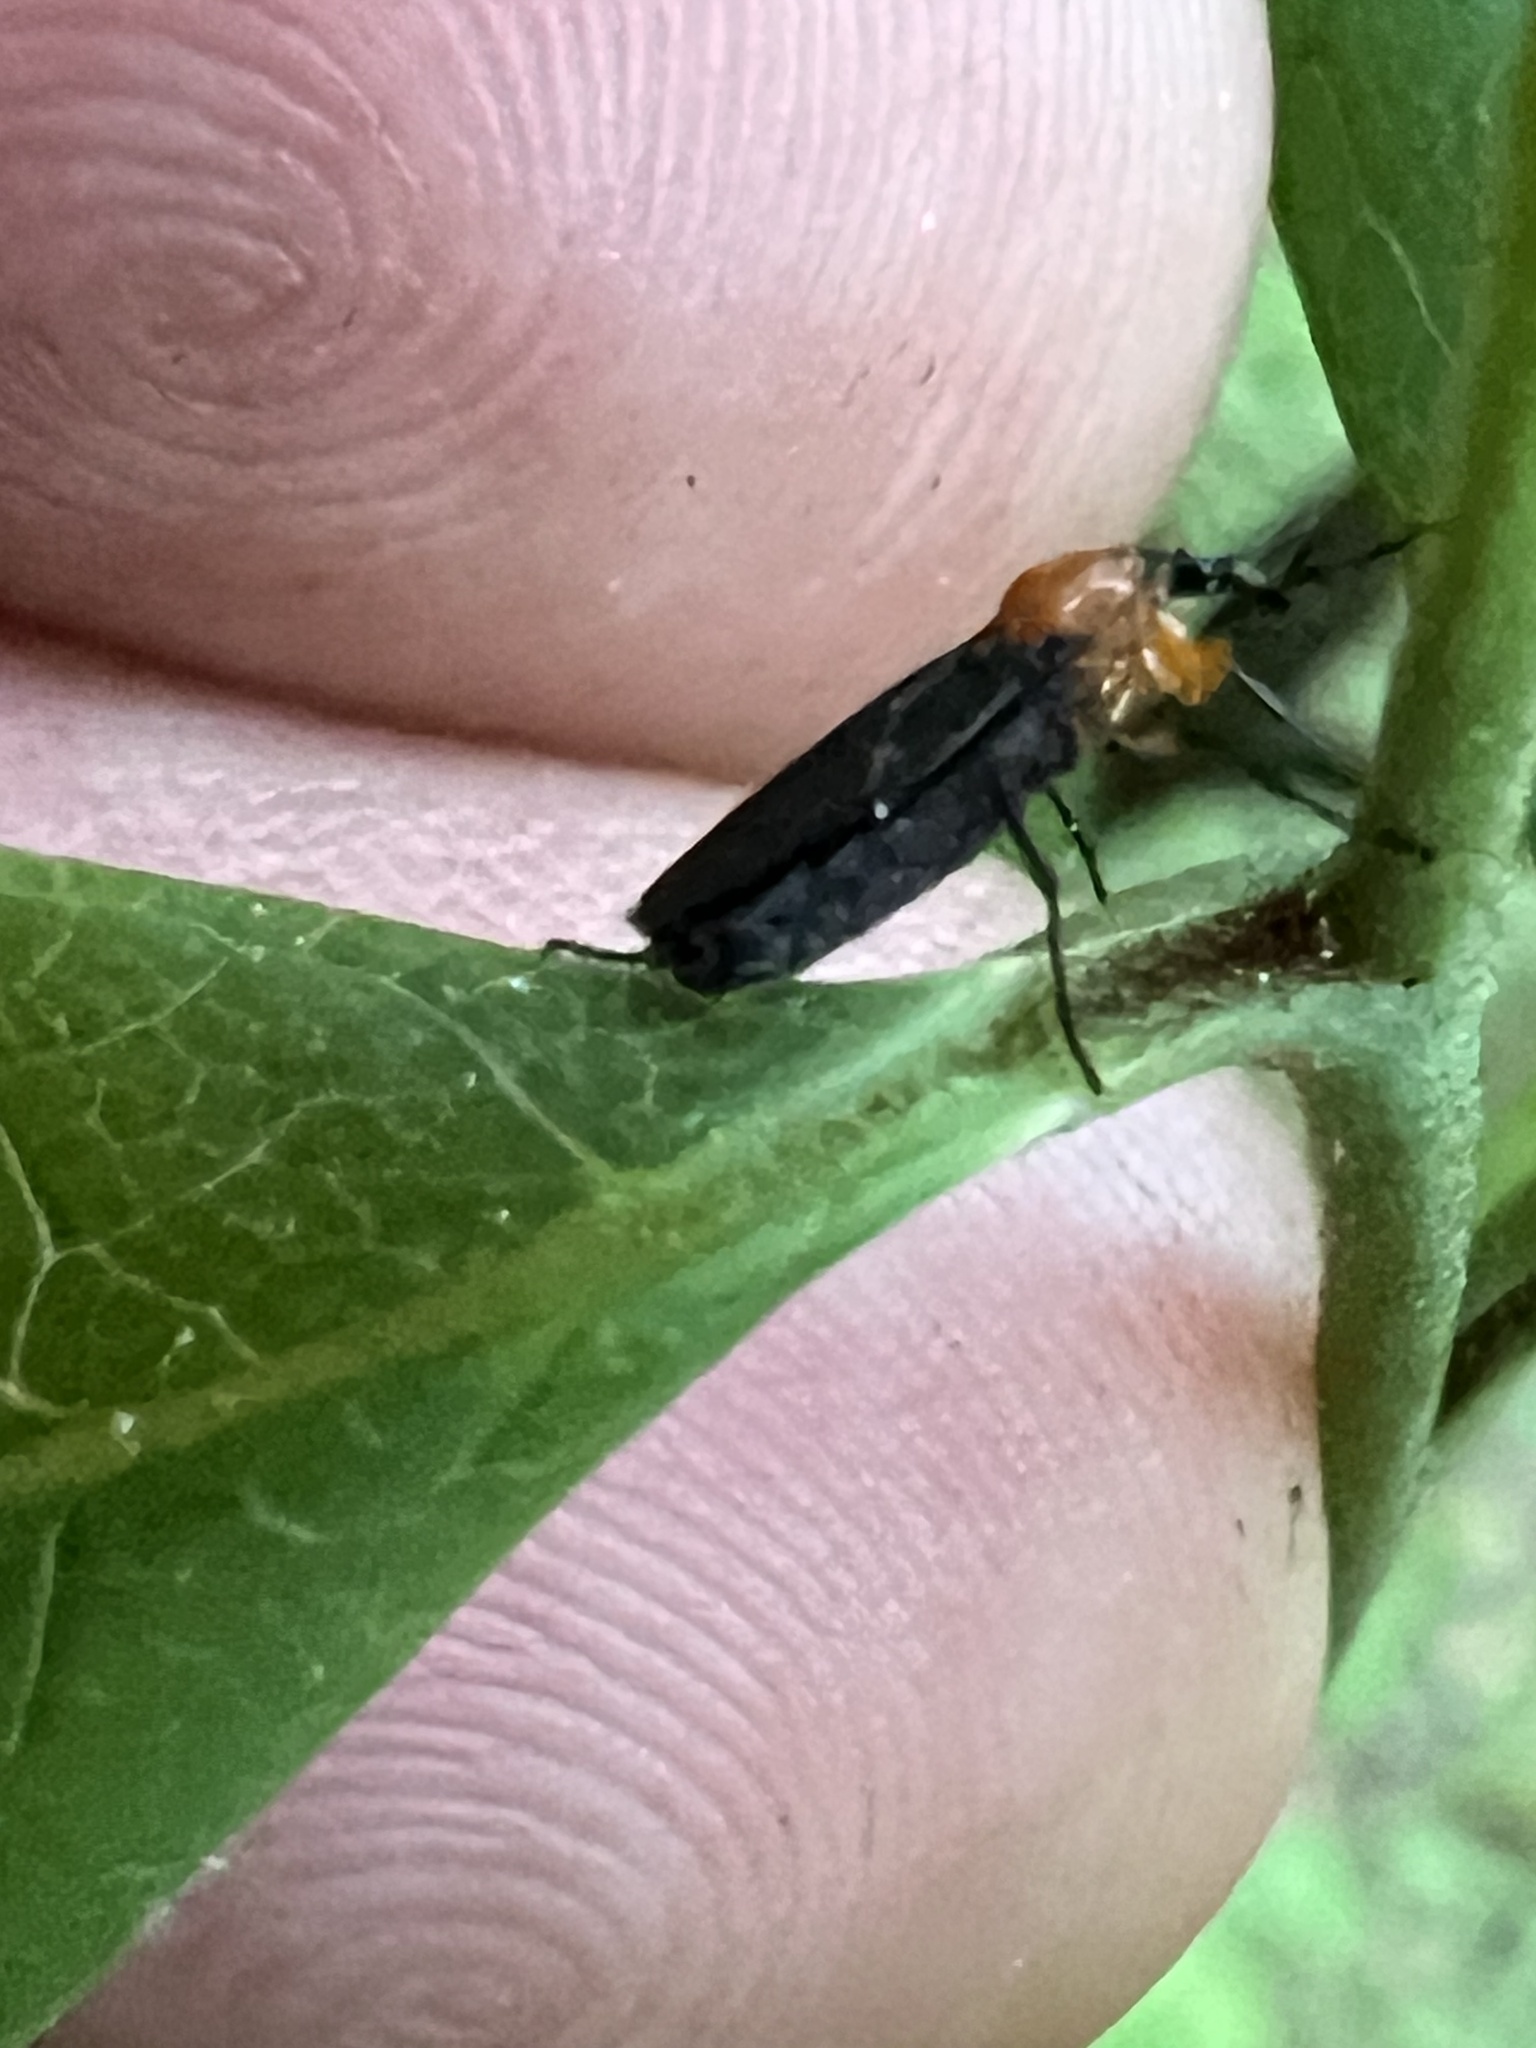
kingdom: Animalia
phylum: Arthropoda
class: Insecta
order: Diptera
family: Bibionidae
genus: Dilophus
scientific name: Dilophus spinipes
